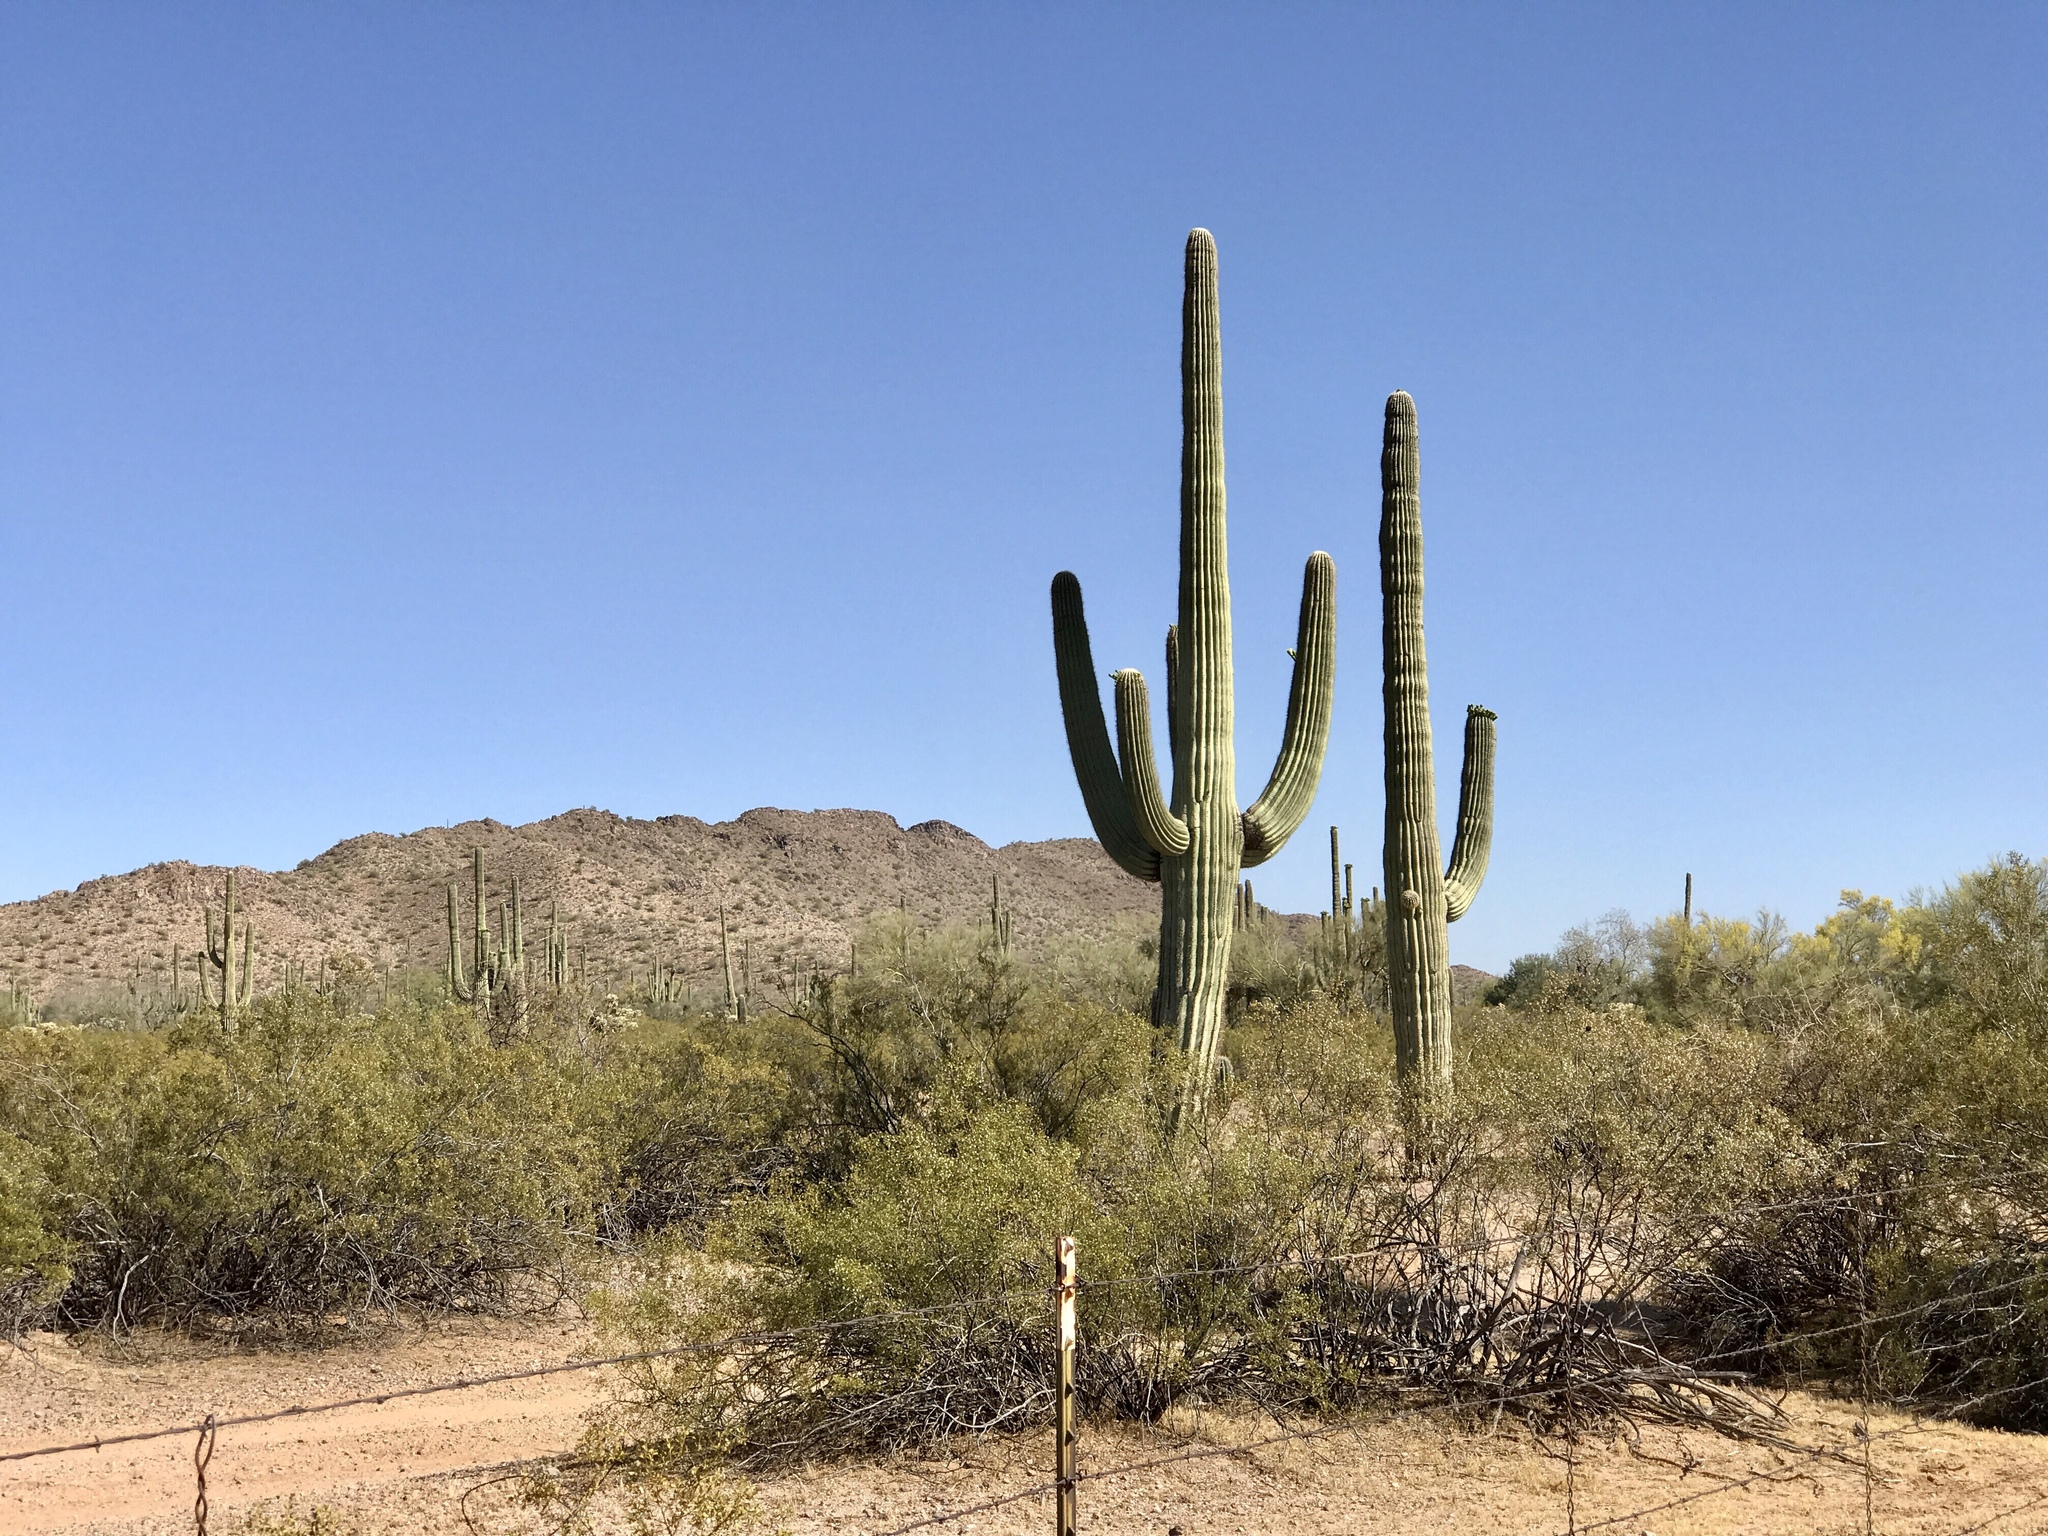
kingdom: Plantae
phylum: Tracheophyta
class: Magnoliopsida
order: Zygophyllales
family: Zygophyllaceae
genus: Larrea
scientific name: Larrea tridentata
